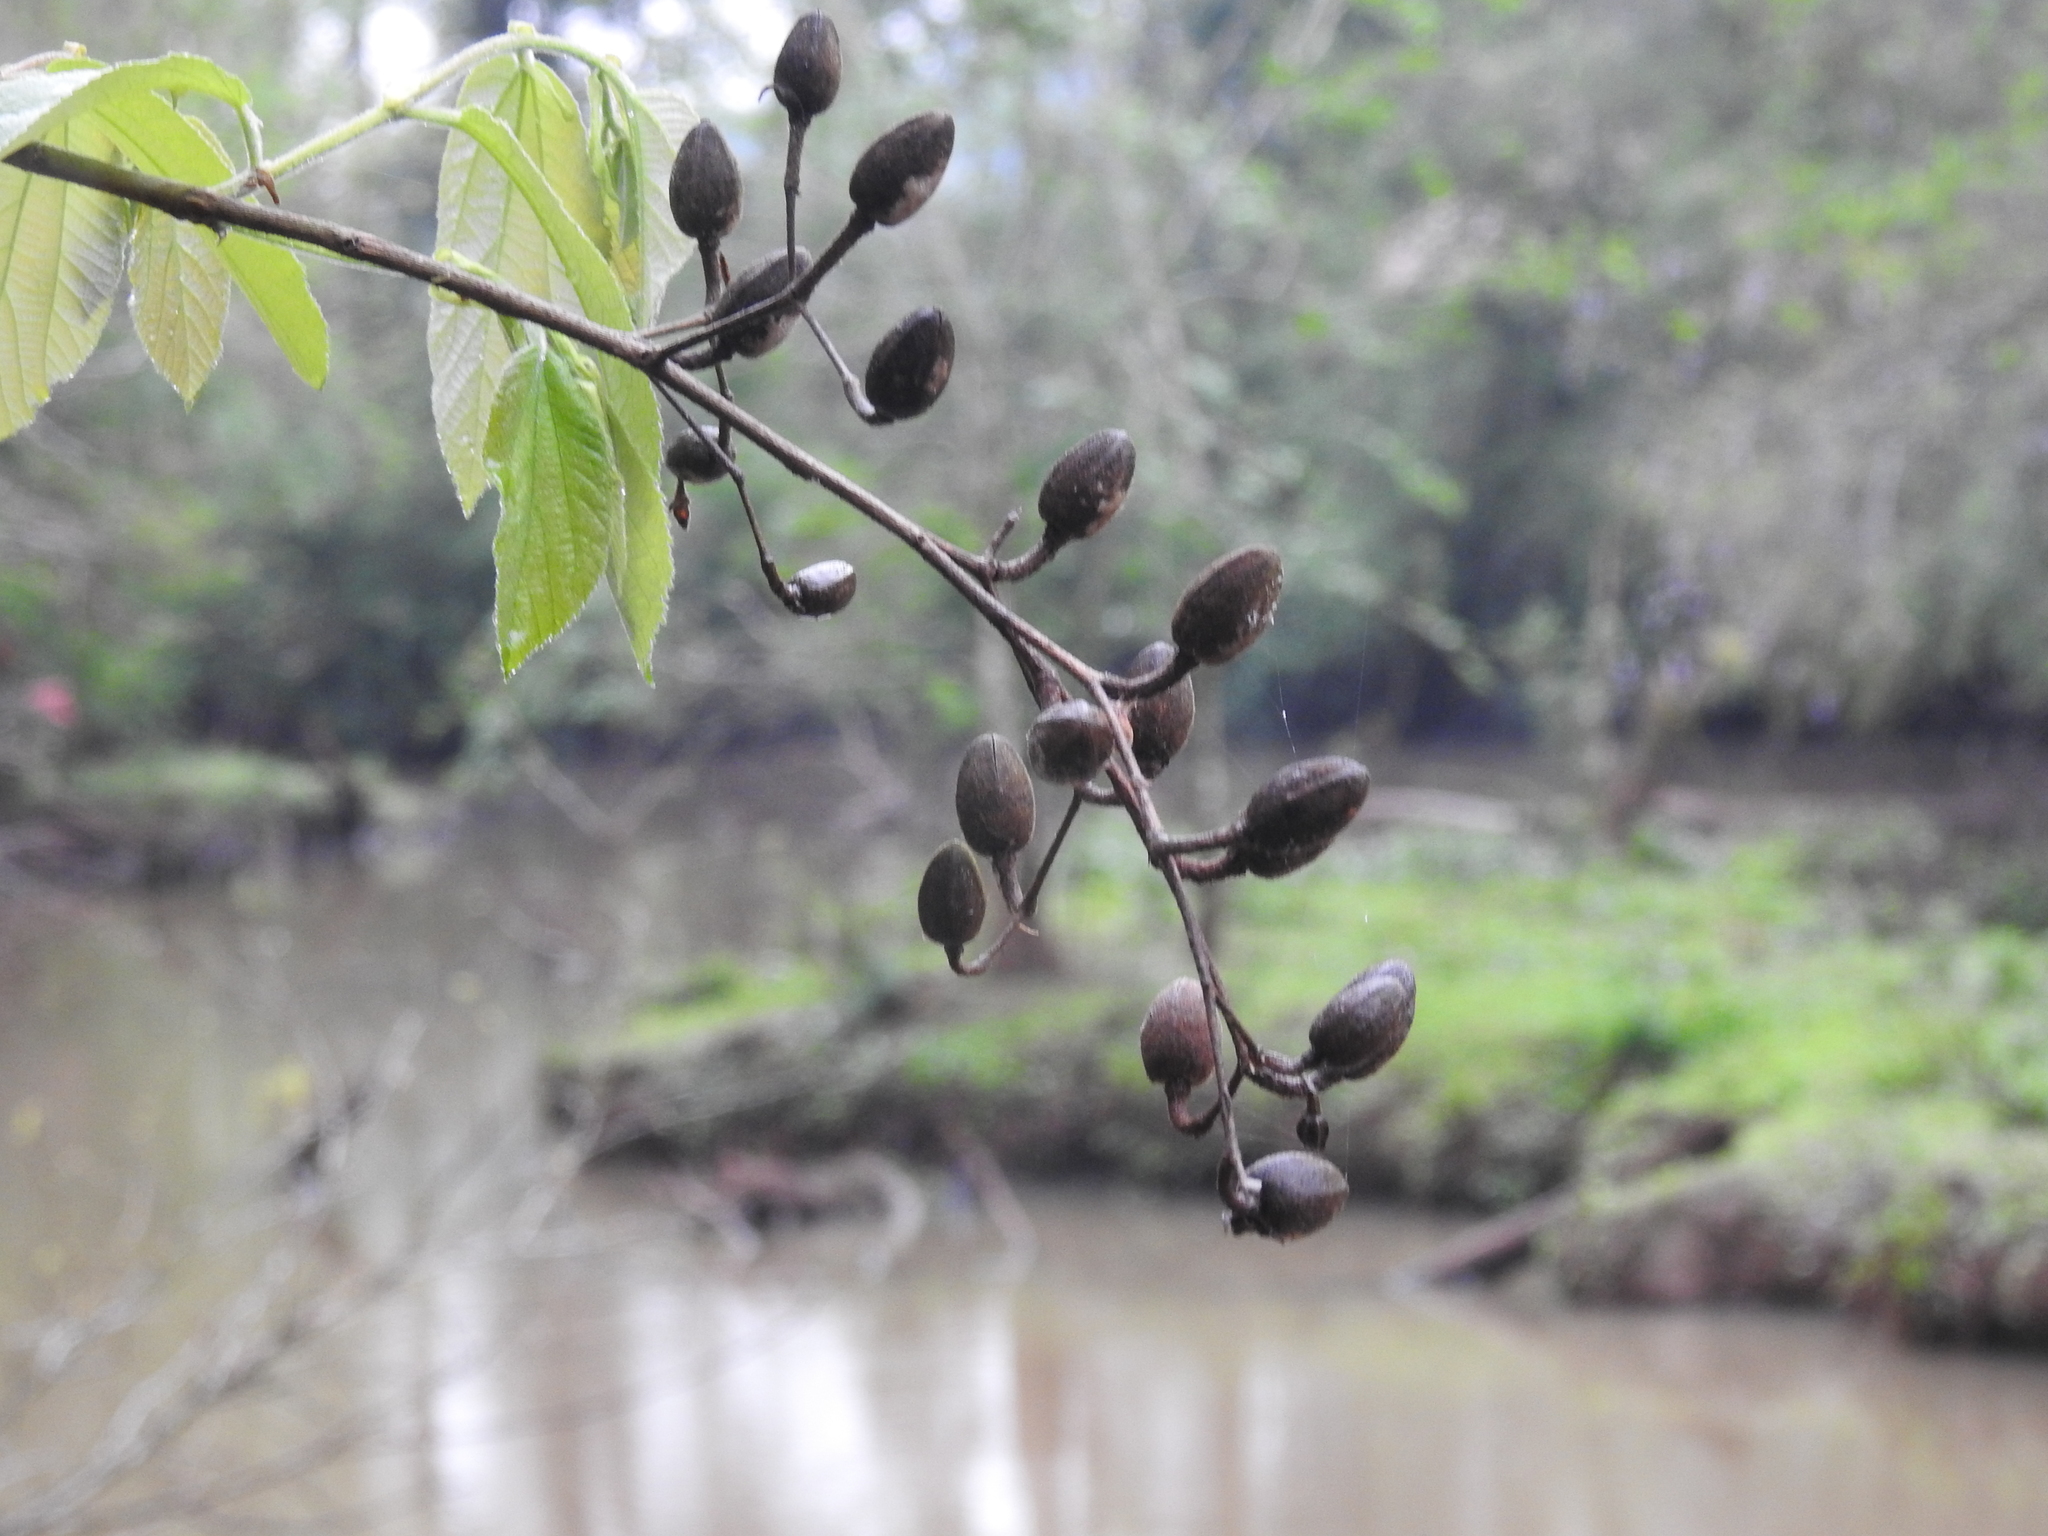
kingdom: Plantae
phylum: Tracheophyta
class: Magnoliopsida
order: Malvales
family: Malvaceae
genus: Luehea
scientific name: Luehea divaricata
